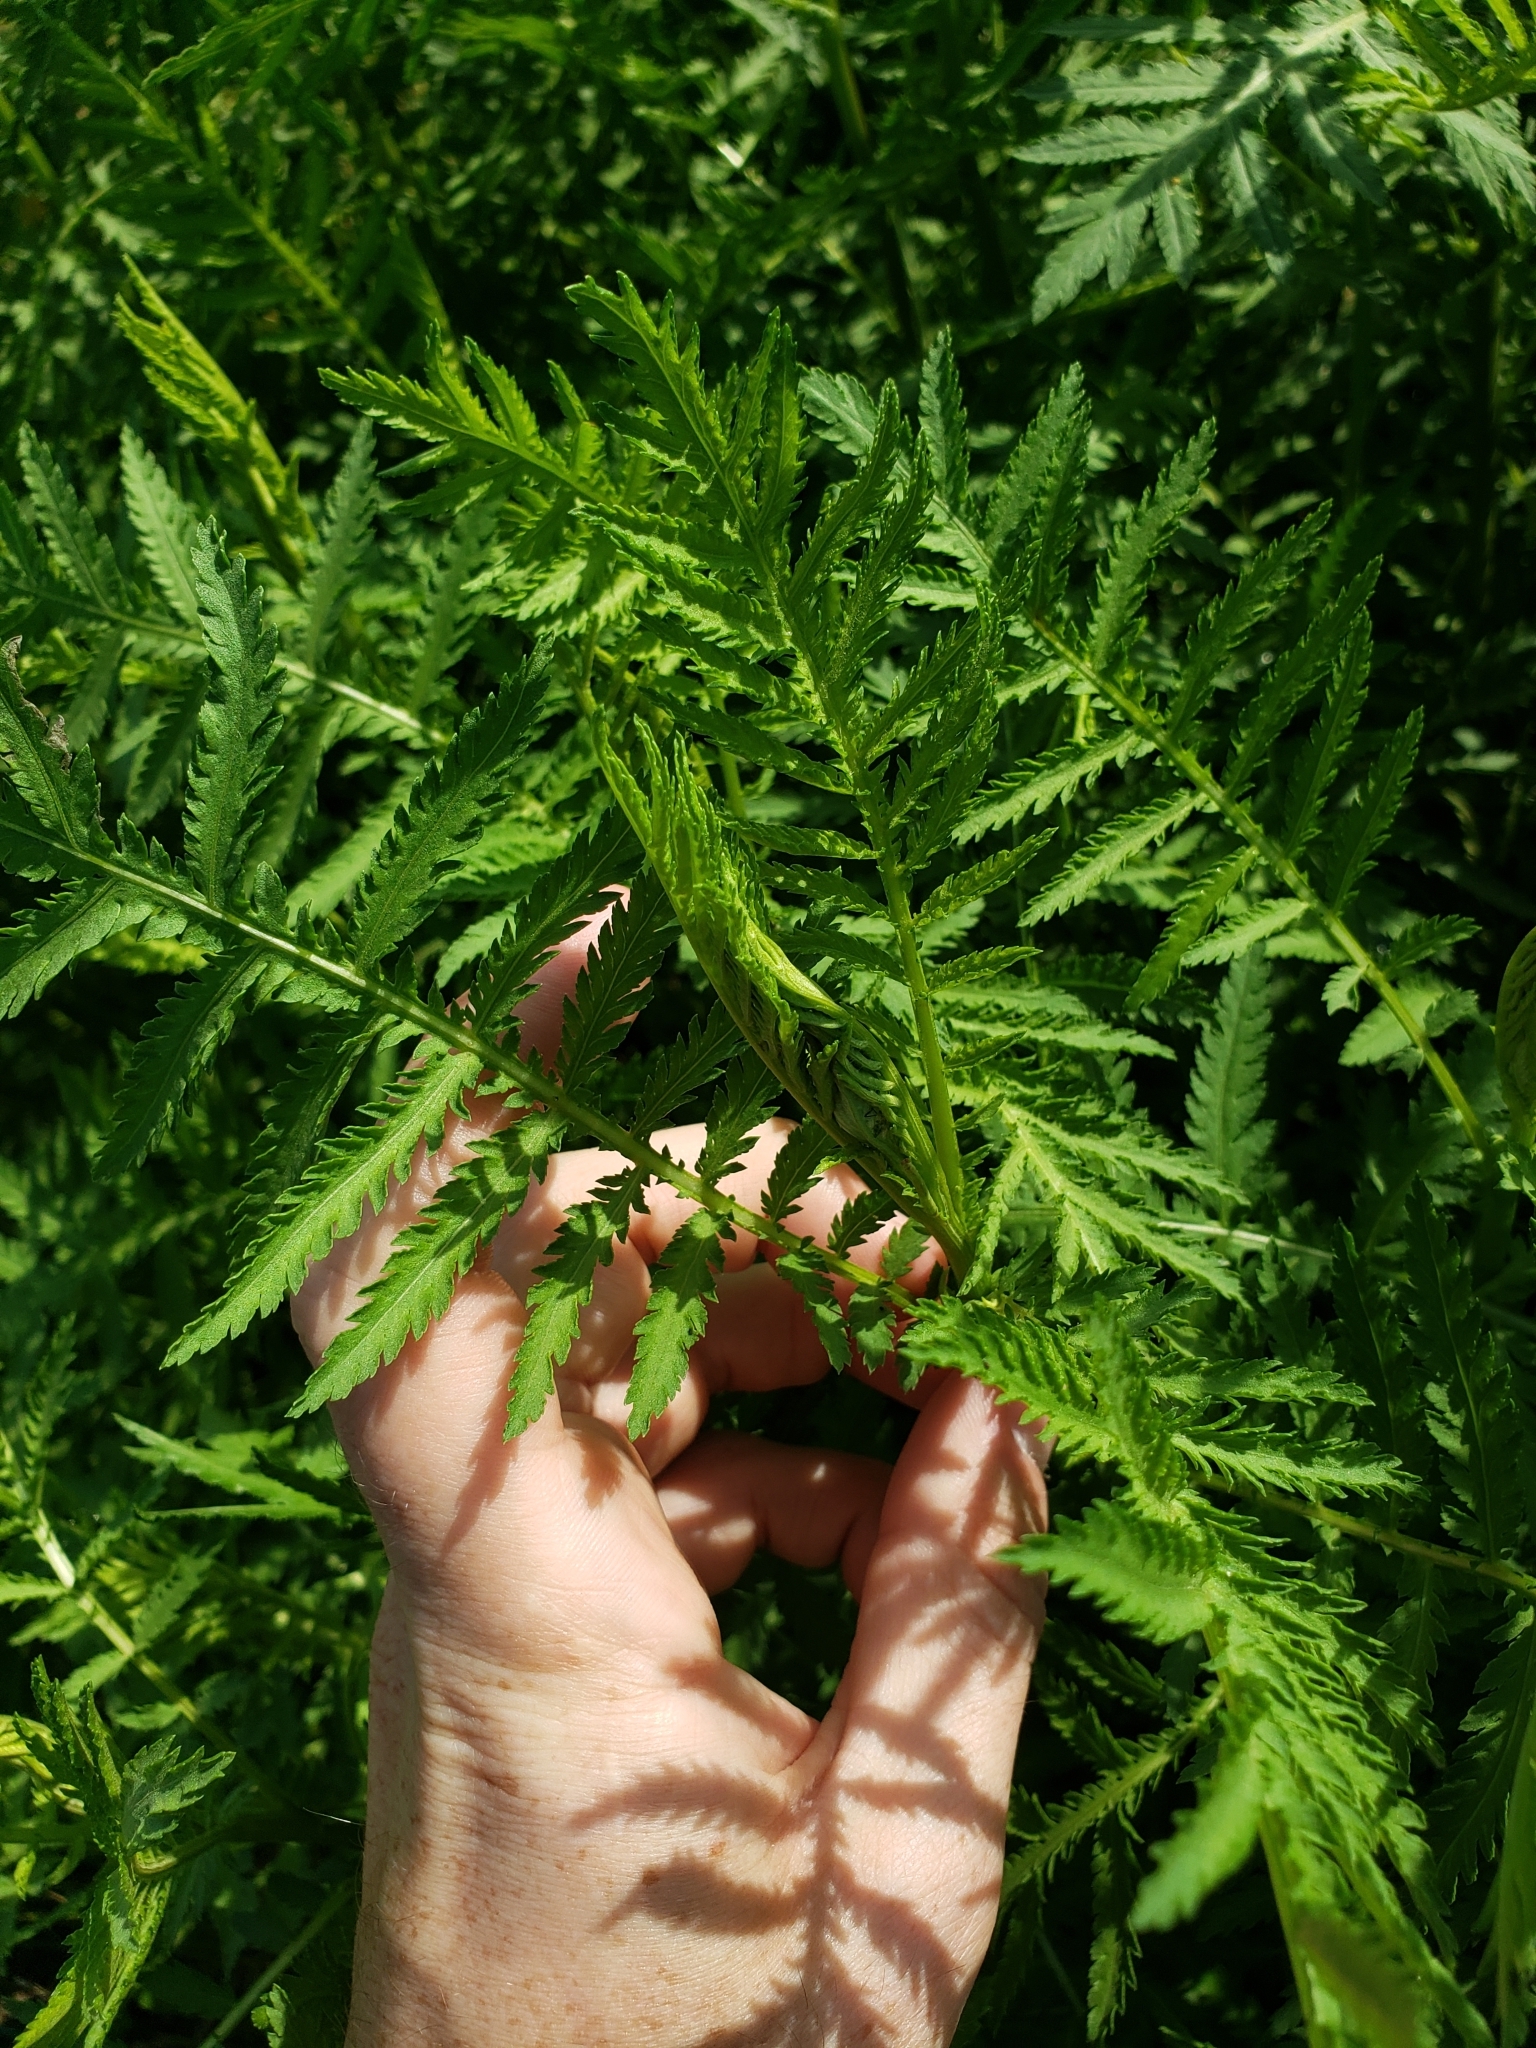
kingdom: Plantae
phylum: Tracheophyta
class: Magnoliopsida
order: Asterales
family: Asteraceae
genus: Tanacetum
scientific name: Tanacetum vulgare
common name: Common tansy
